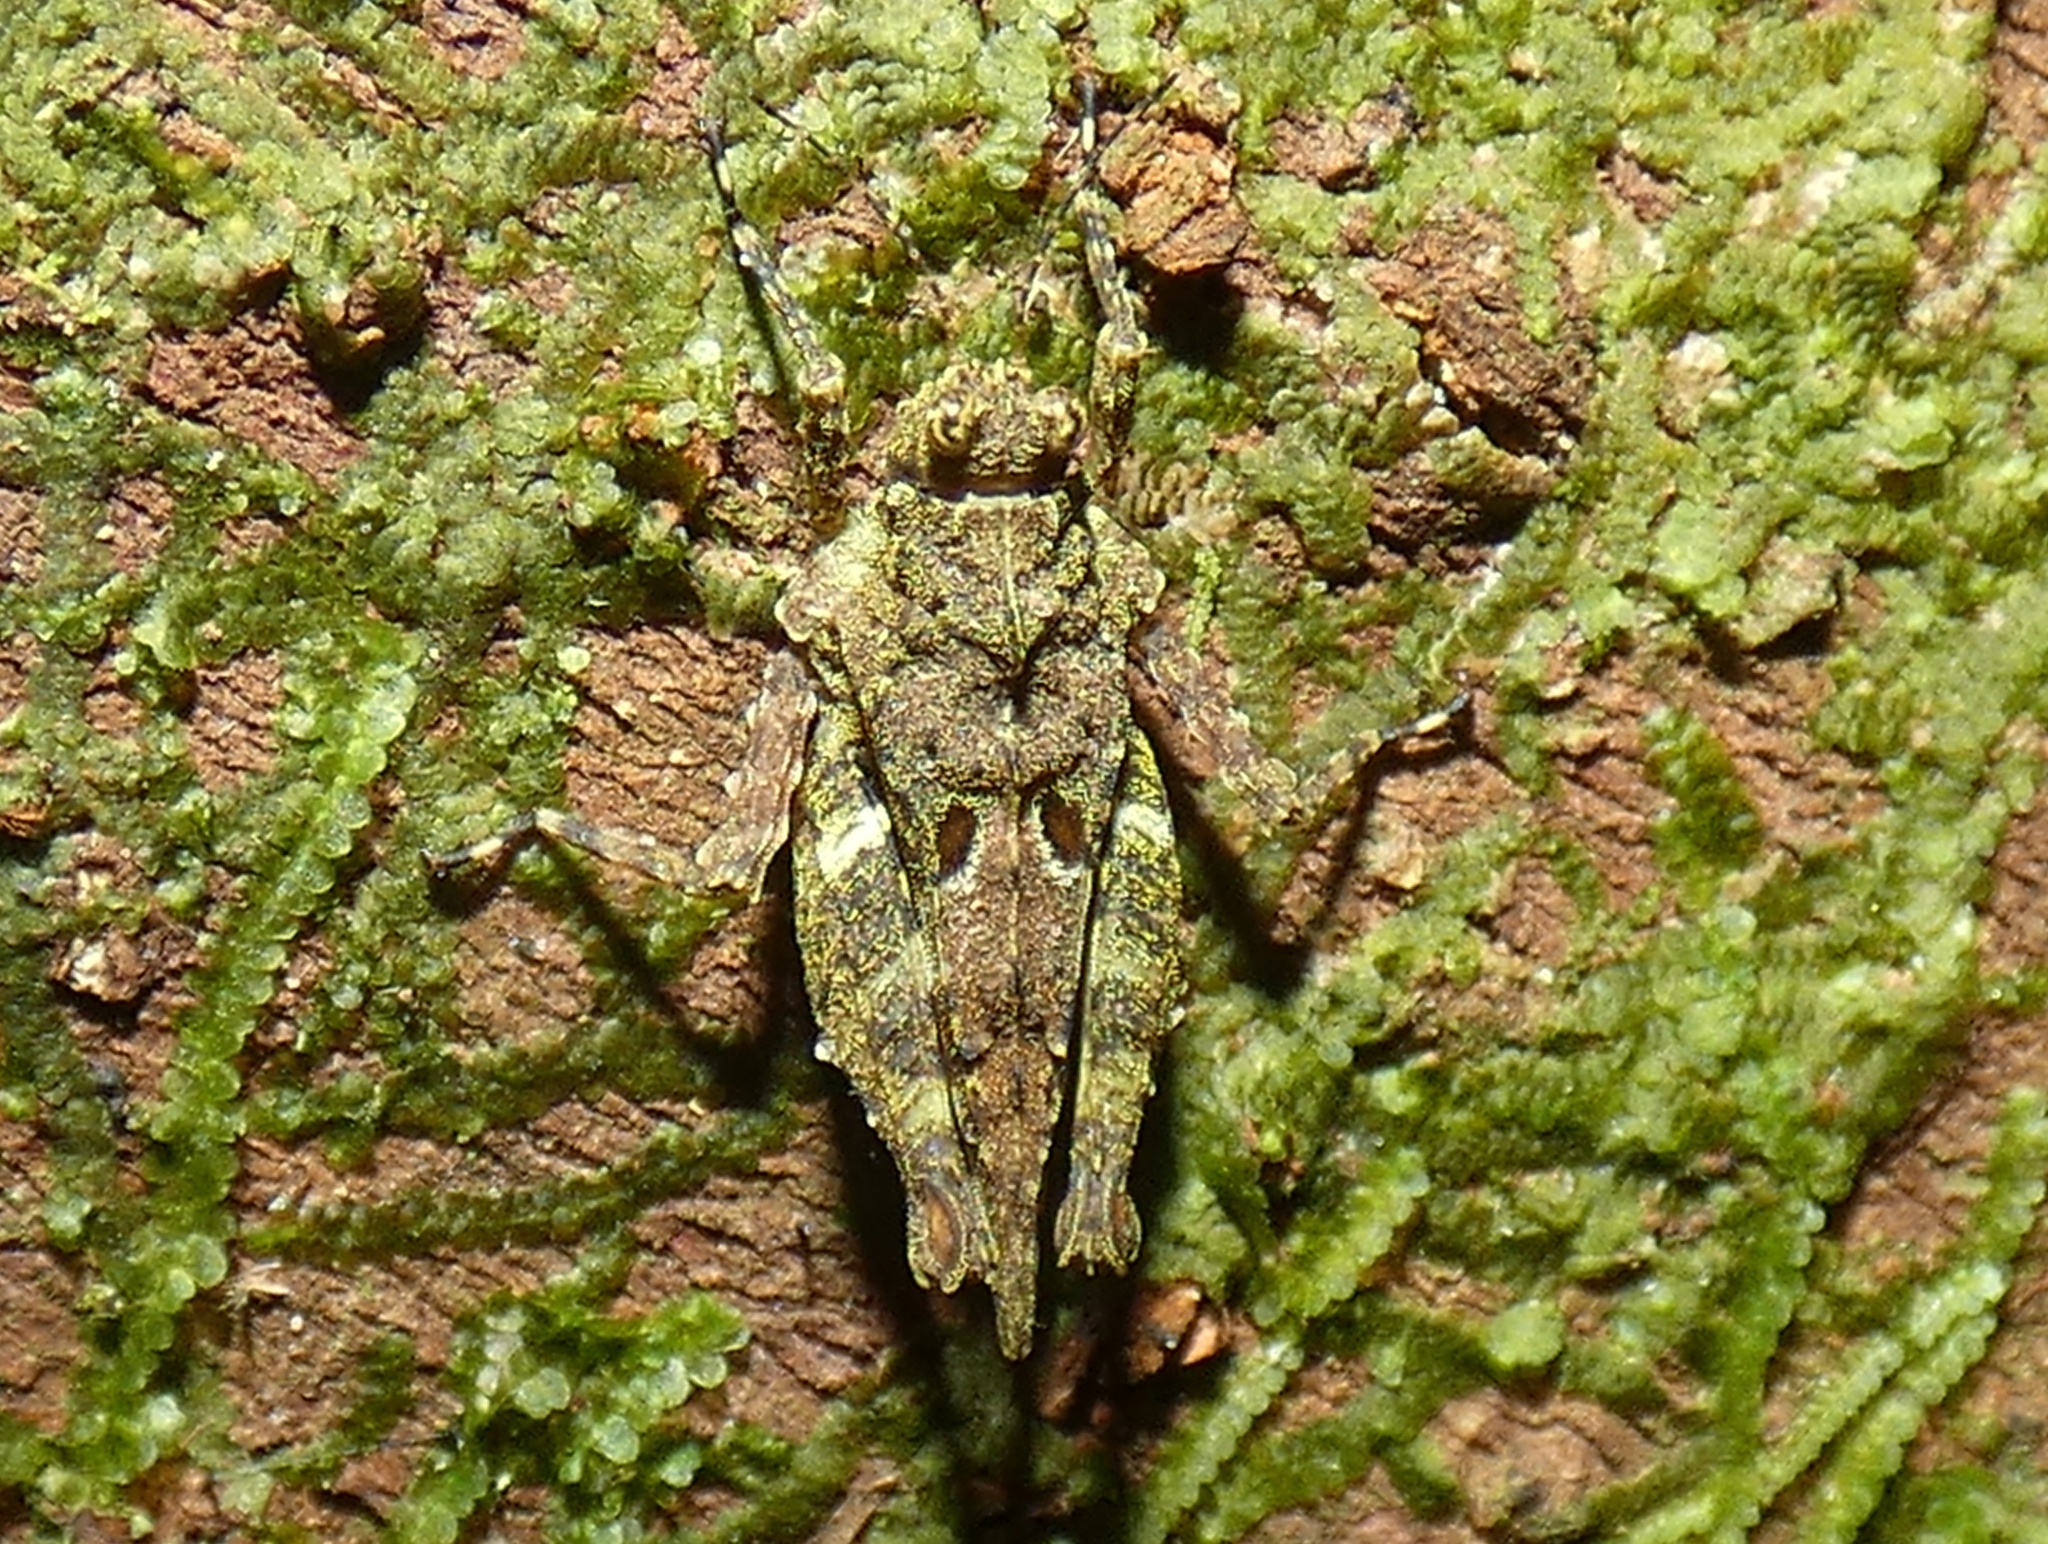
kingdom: Animalia
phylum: Arthropoda
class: Insecta
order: Orthoptera
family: Tetrigidae
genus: Chiriquia
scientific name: Chiriquia serrata
